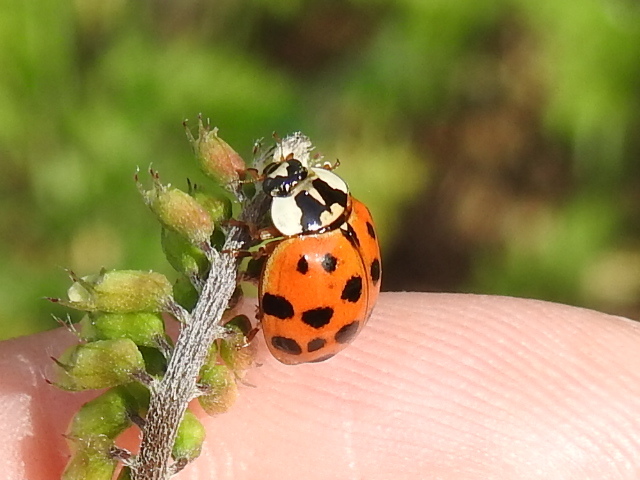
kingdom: Animalia
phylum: Arthropoda
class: Insecta
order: Coleoptera
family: Coccinellidae
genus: Harmonia
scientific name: Harmonia axyridis
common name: Harlequin ladybird
